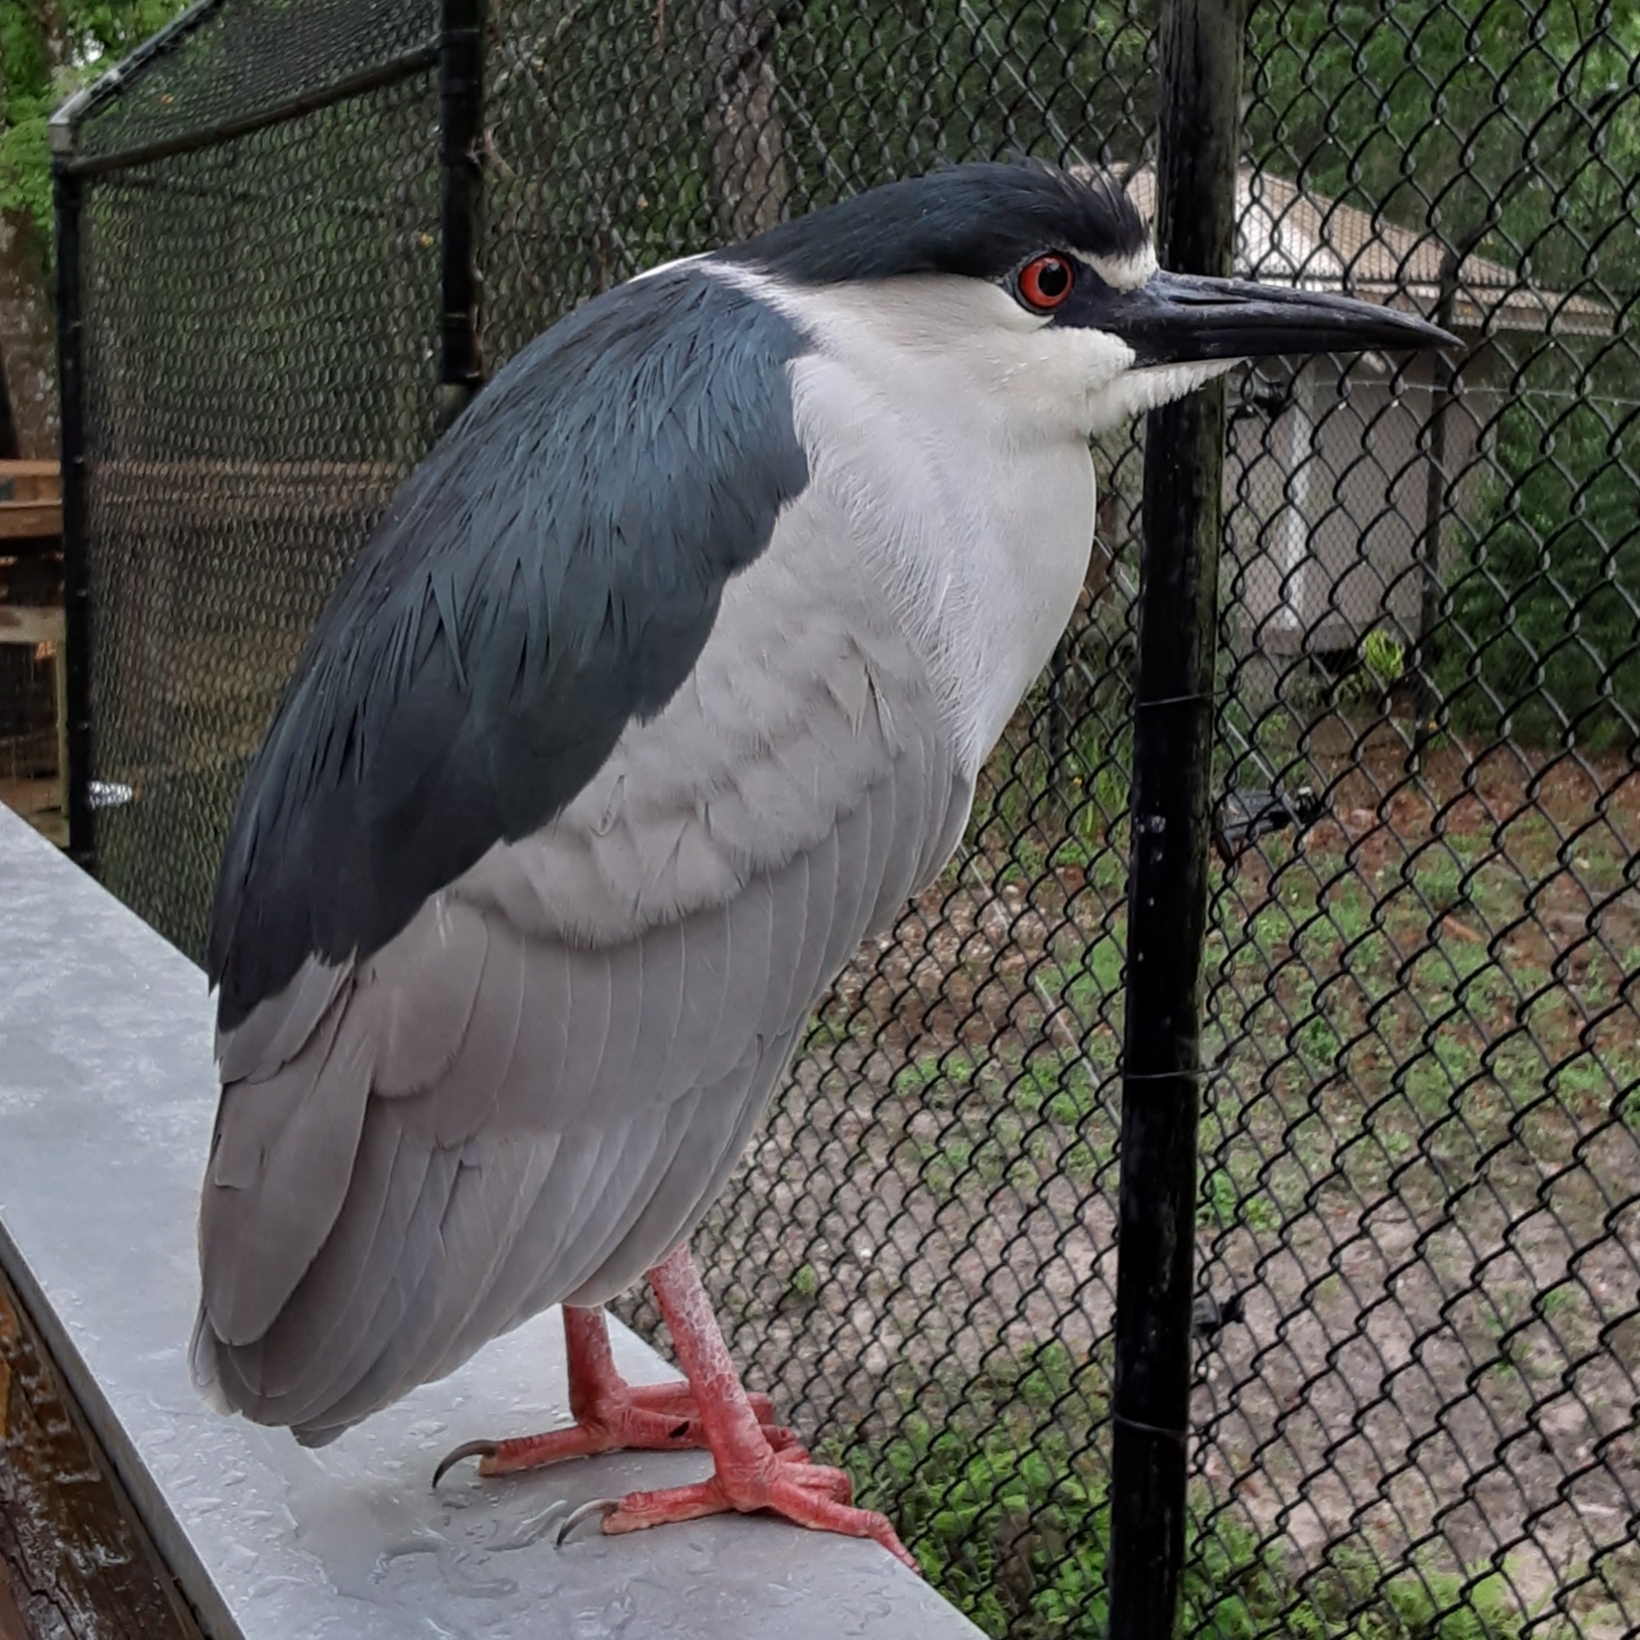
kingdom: Animalia
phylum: Chordata
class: Aves
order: Pelecaniformes
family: Ardeidae
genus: Nycticorax
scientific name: Nycticorax nycticorax
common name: Black-crowned night heron
